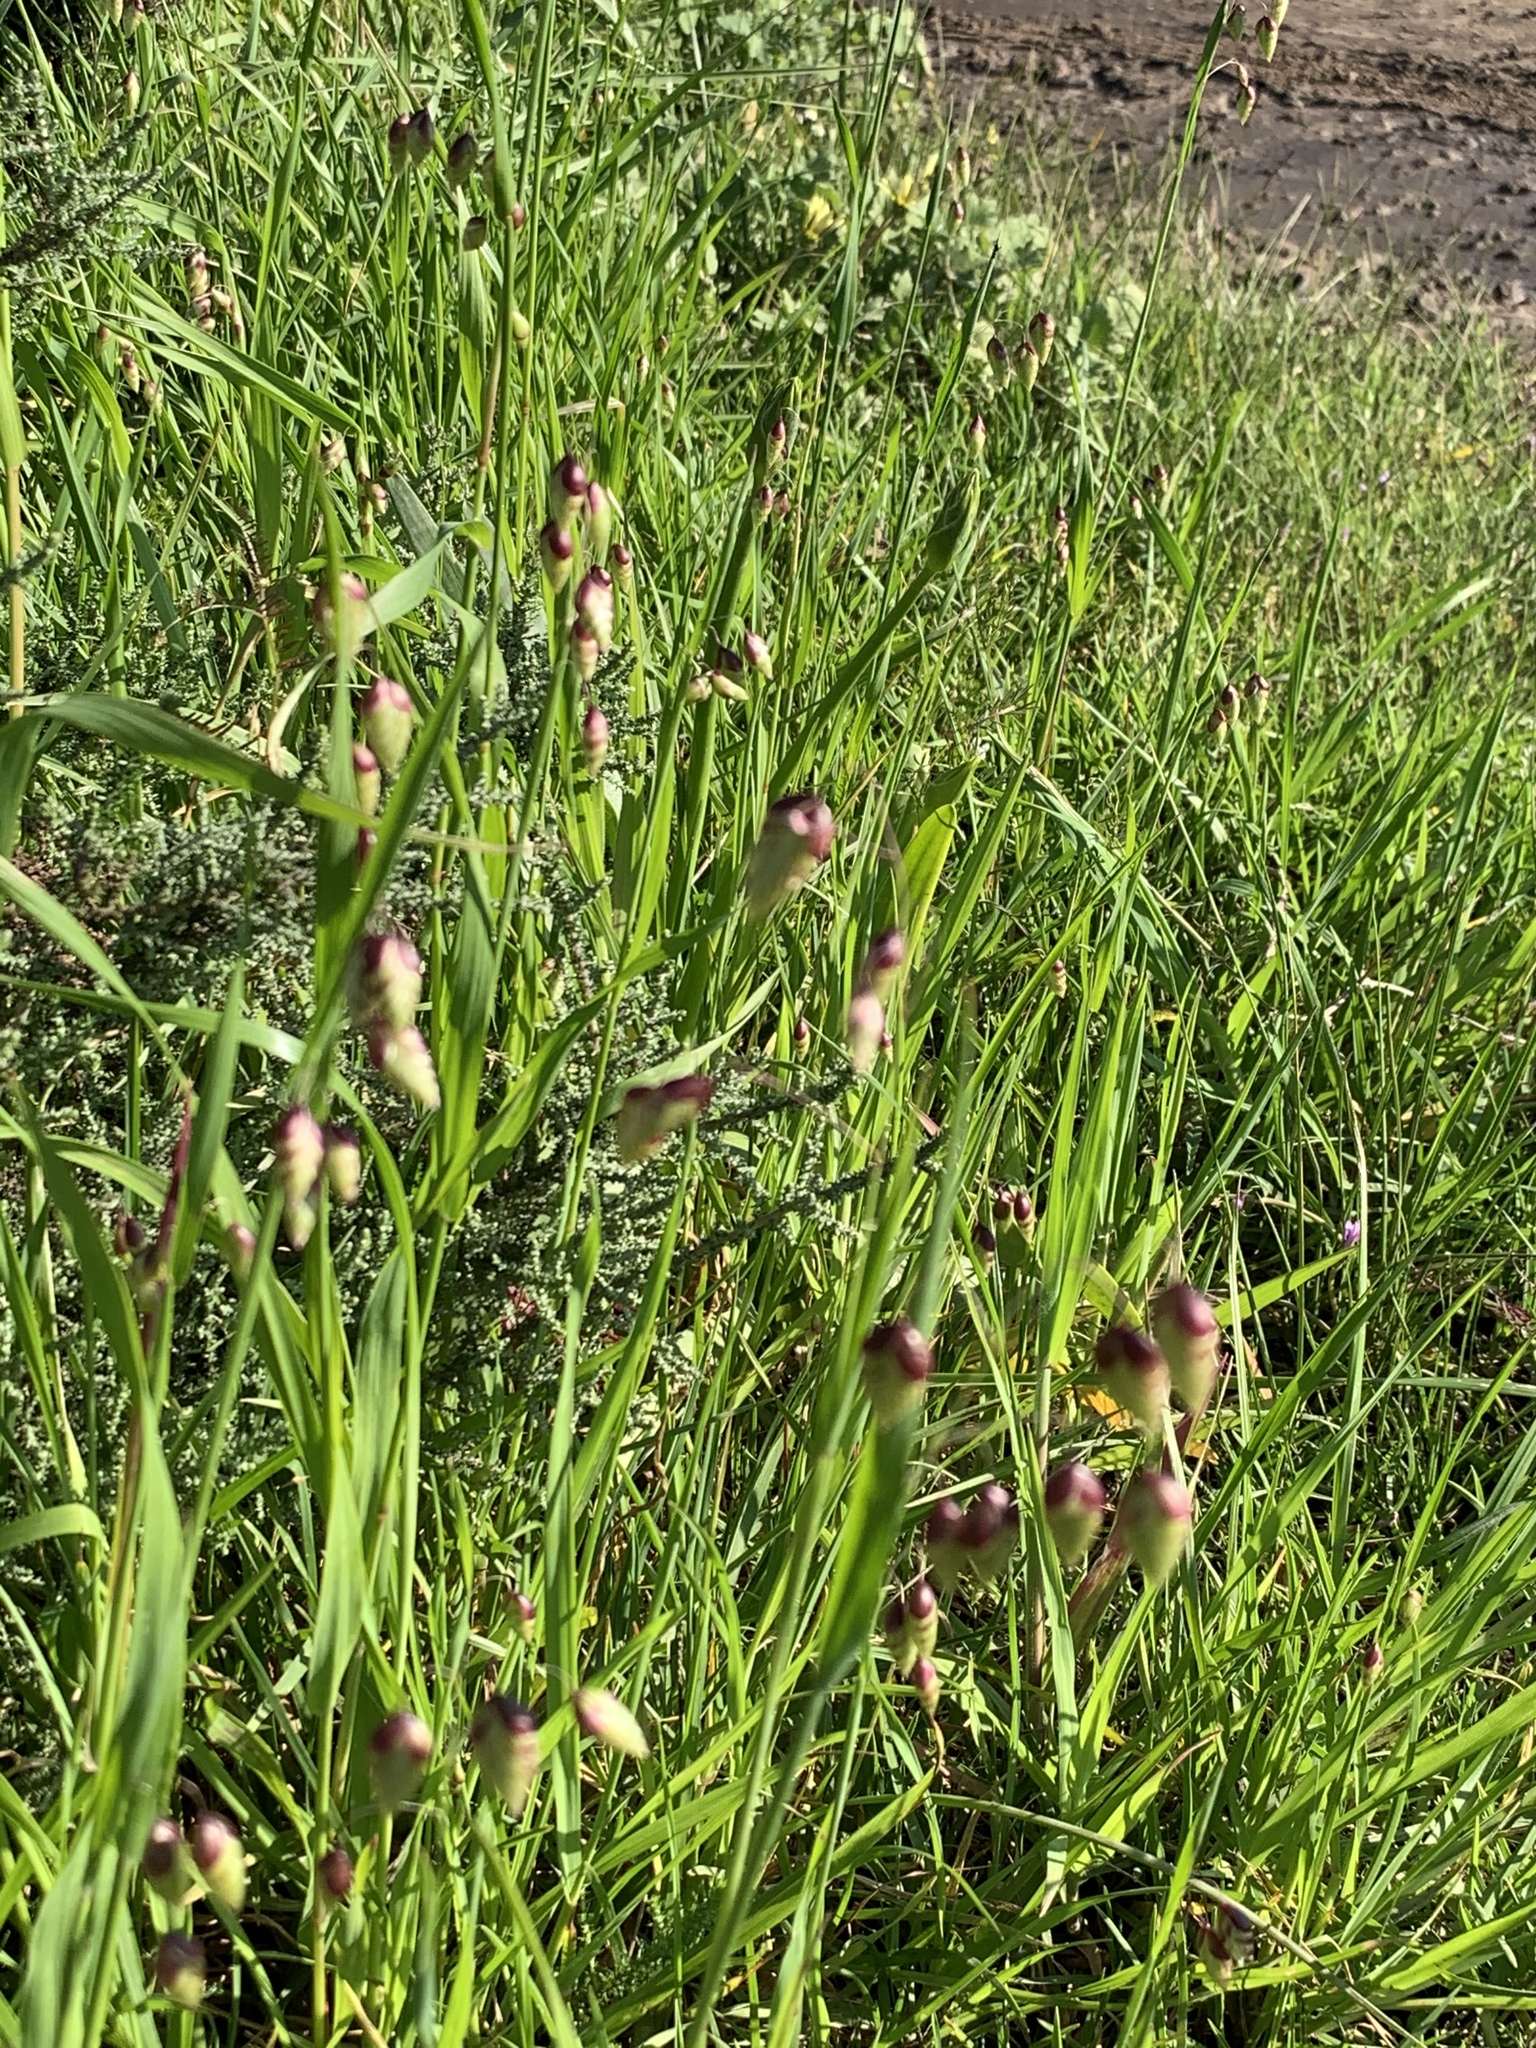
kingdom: Plantae
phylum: Tracheophyta
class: Liliopsida
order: Poales
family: Poaceae
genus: Briza
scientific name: Briza maxima
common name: Big quakinggrass
